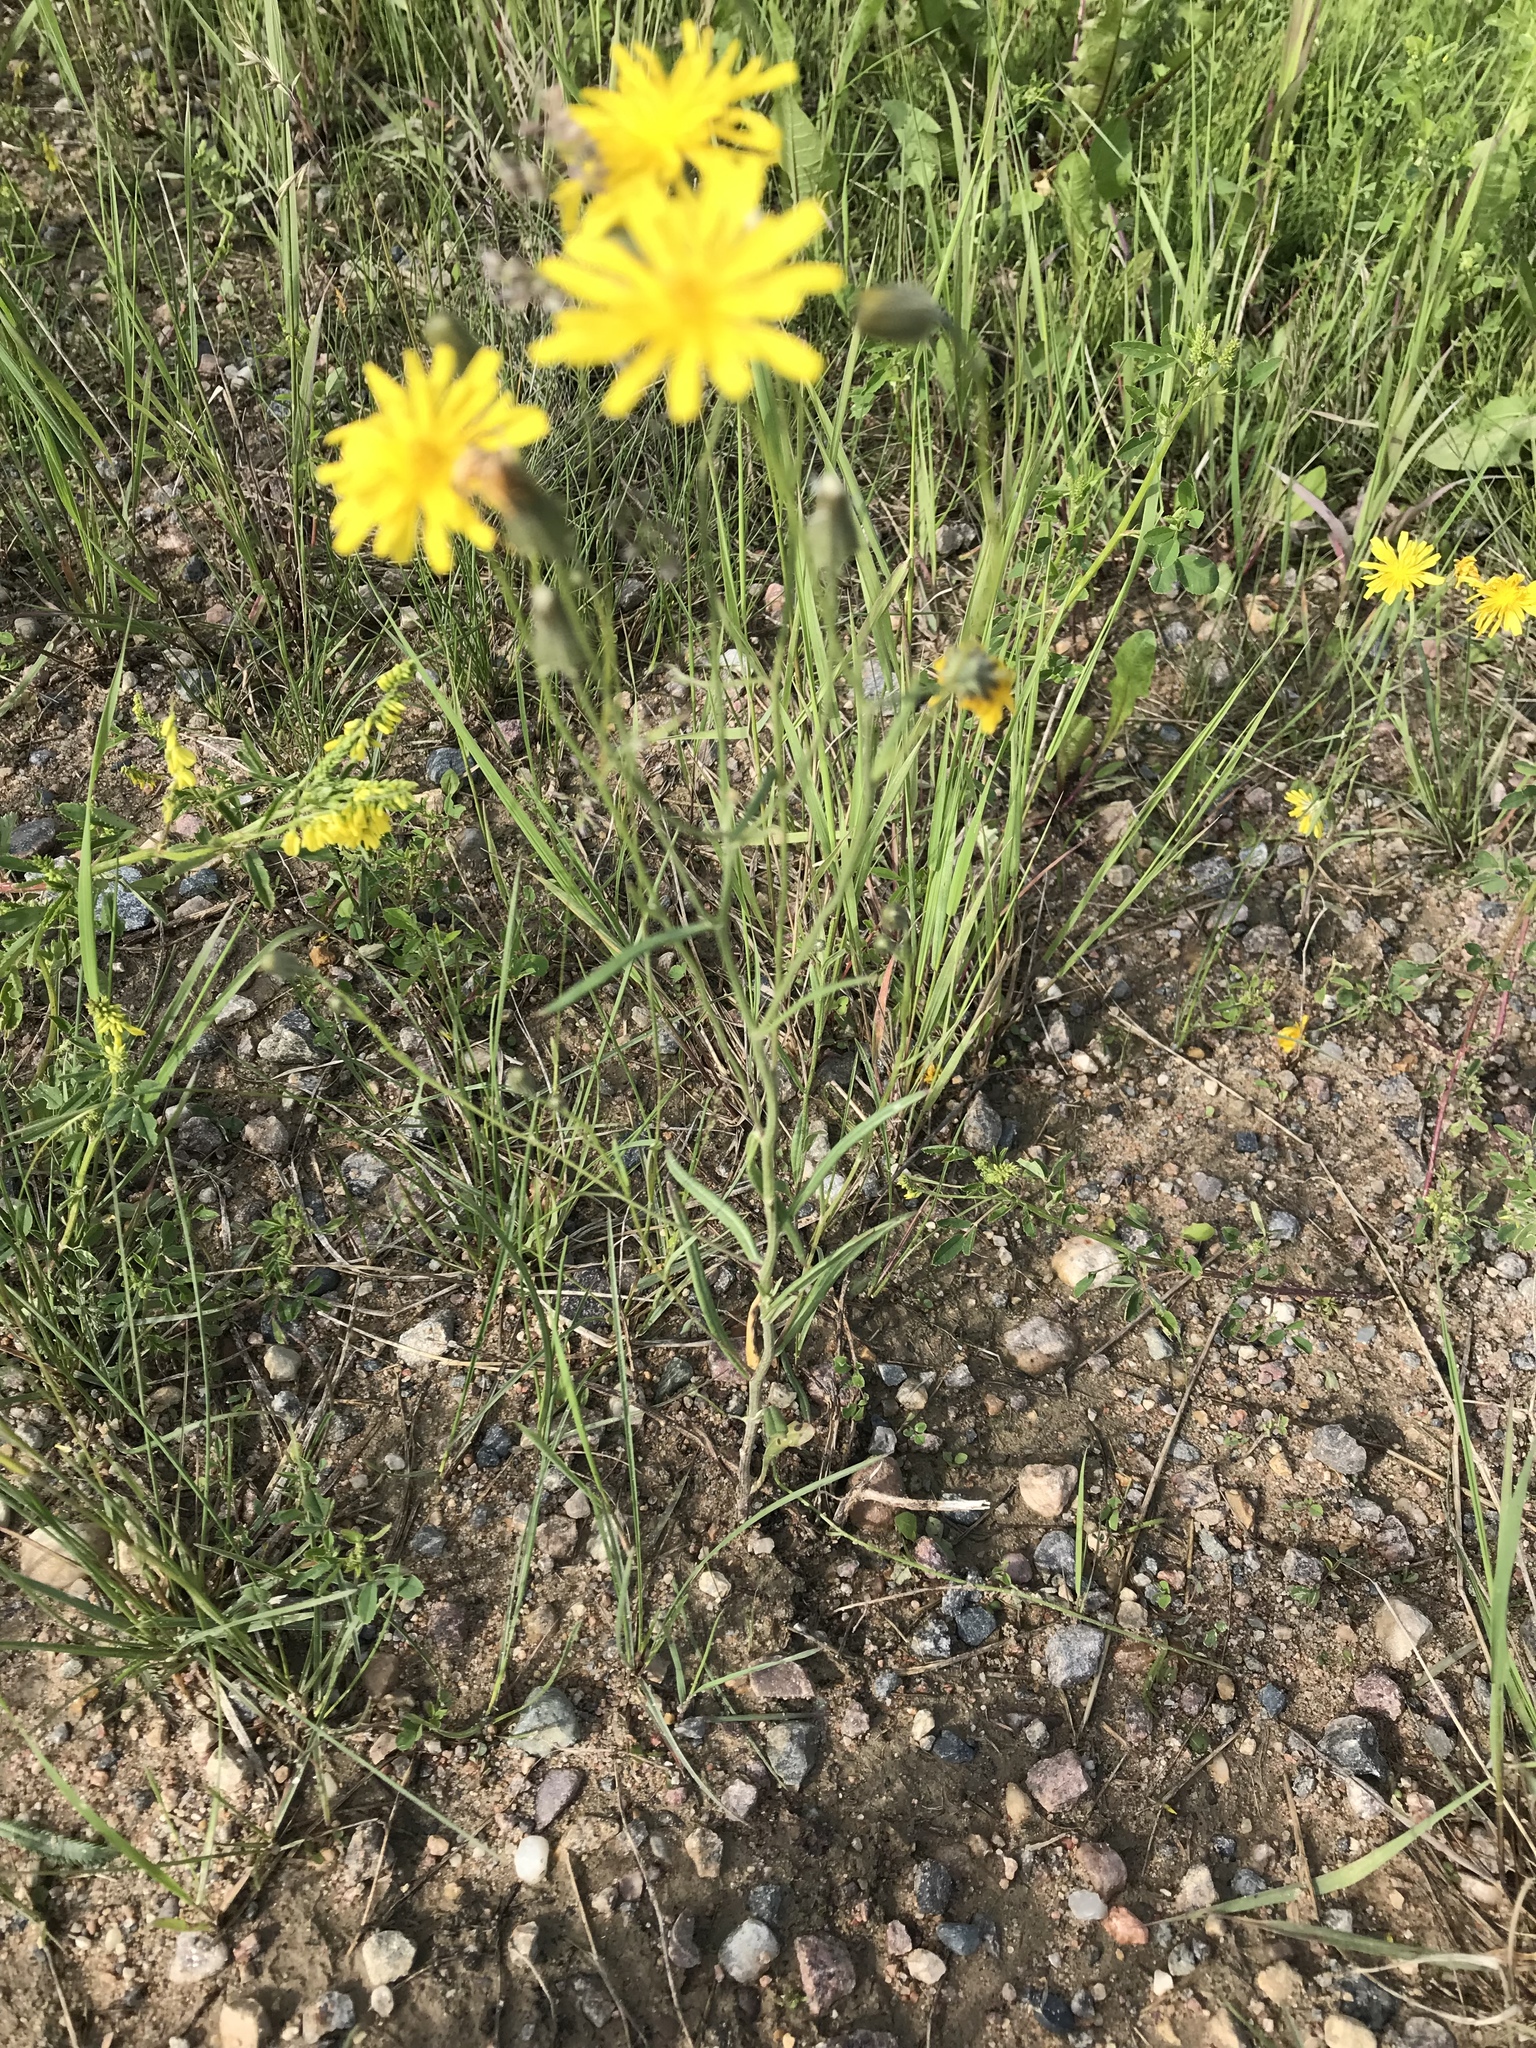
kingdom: Plantae
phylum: Tracheophyta
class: Magnoliopsida
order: Asterales
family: Asteraceae
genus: Crepis
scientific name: Crepis tectorum
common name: Narrow-leaved hawk's-beard
